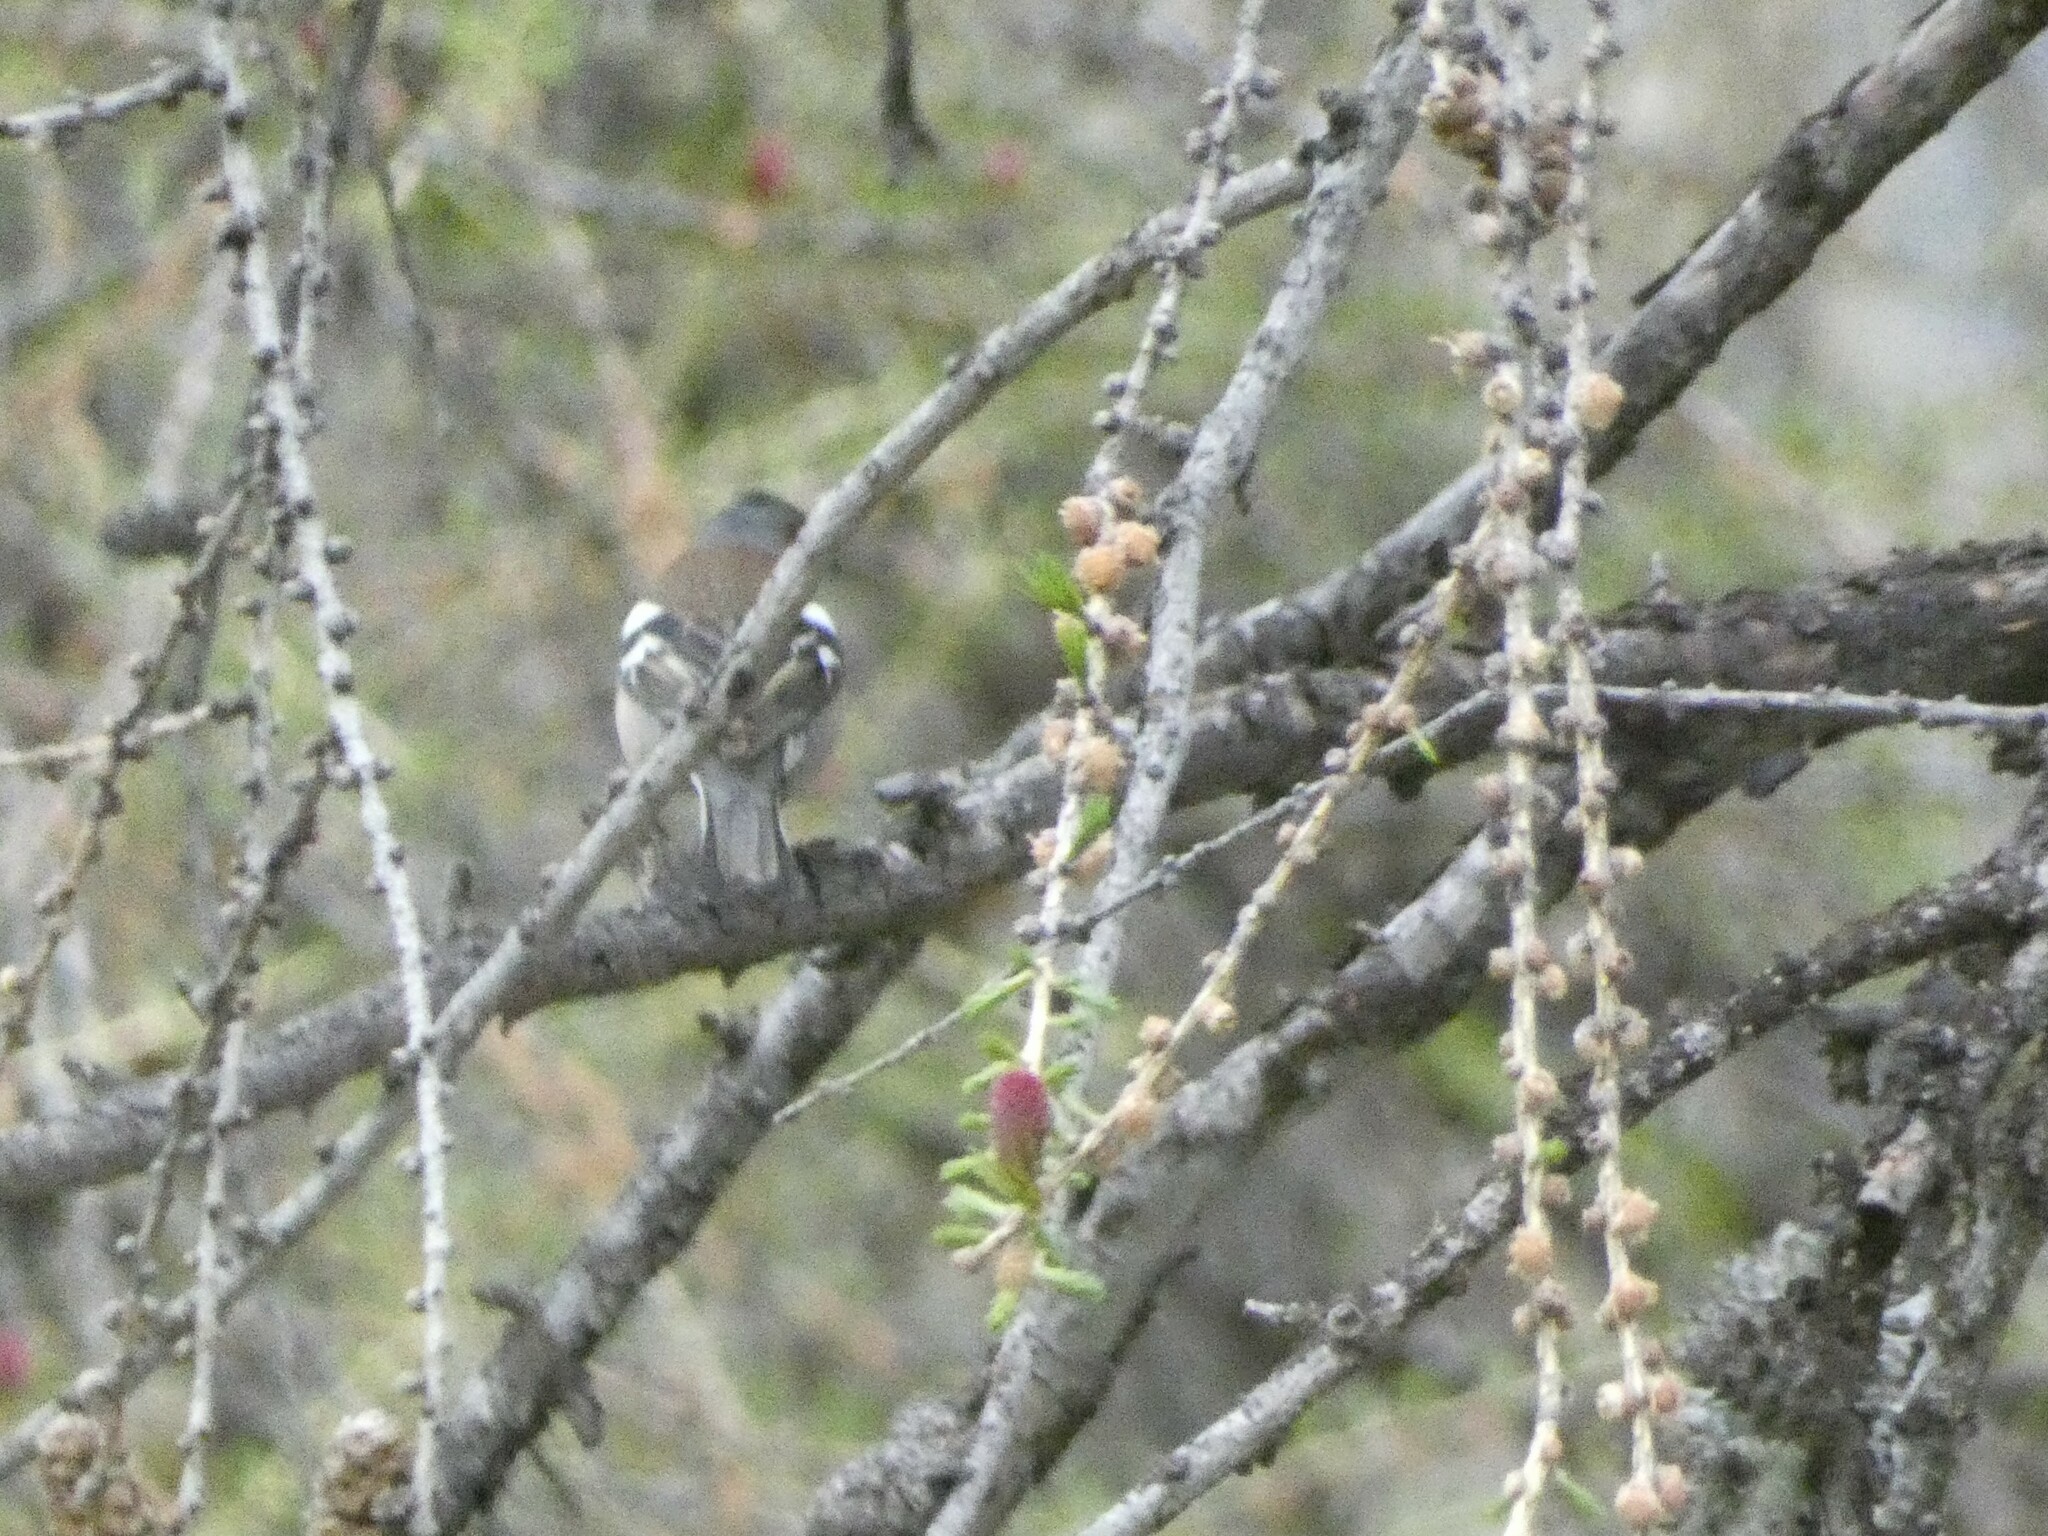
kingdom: Animalia
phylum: Chordata
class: Aves
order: Passeriformes
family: Fringillidae
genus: Fringilla
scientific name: Fringilla coelebs
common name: Common chaffinch
